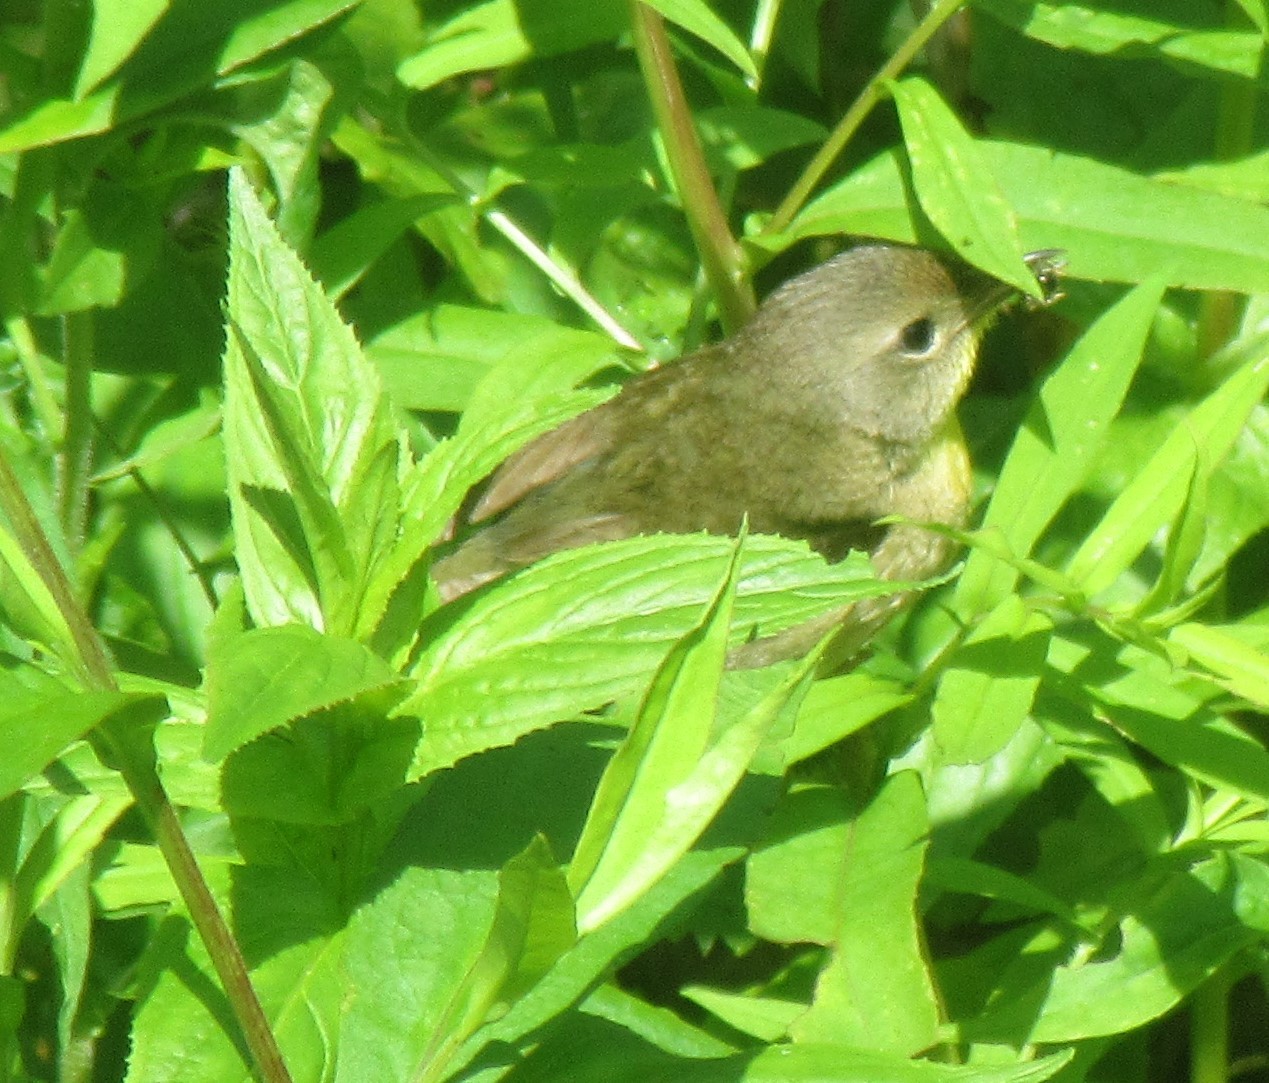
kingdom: Animalia
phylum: Chordata
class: Aves
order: Passeriformes
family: Parulidae
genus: Geothlypis
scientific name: Geothlypis trichas
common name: Common yellowthroat
